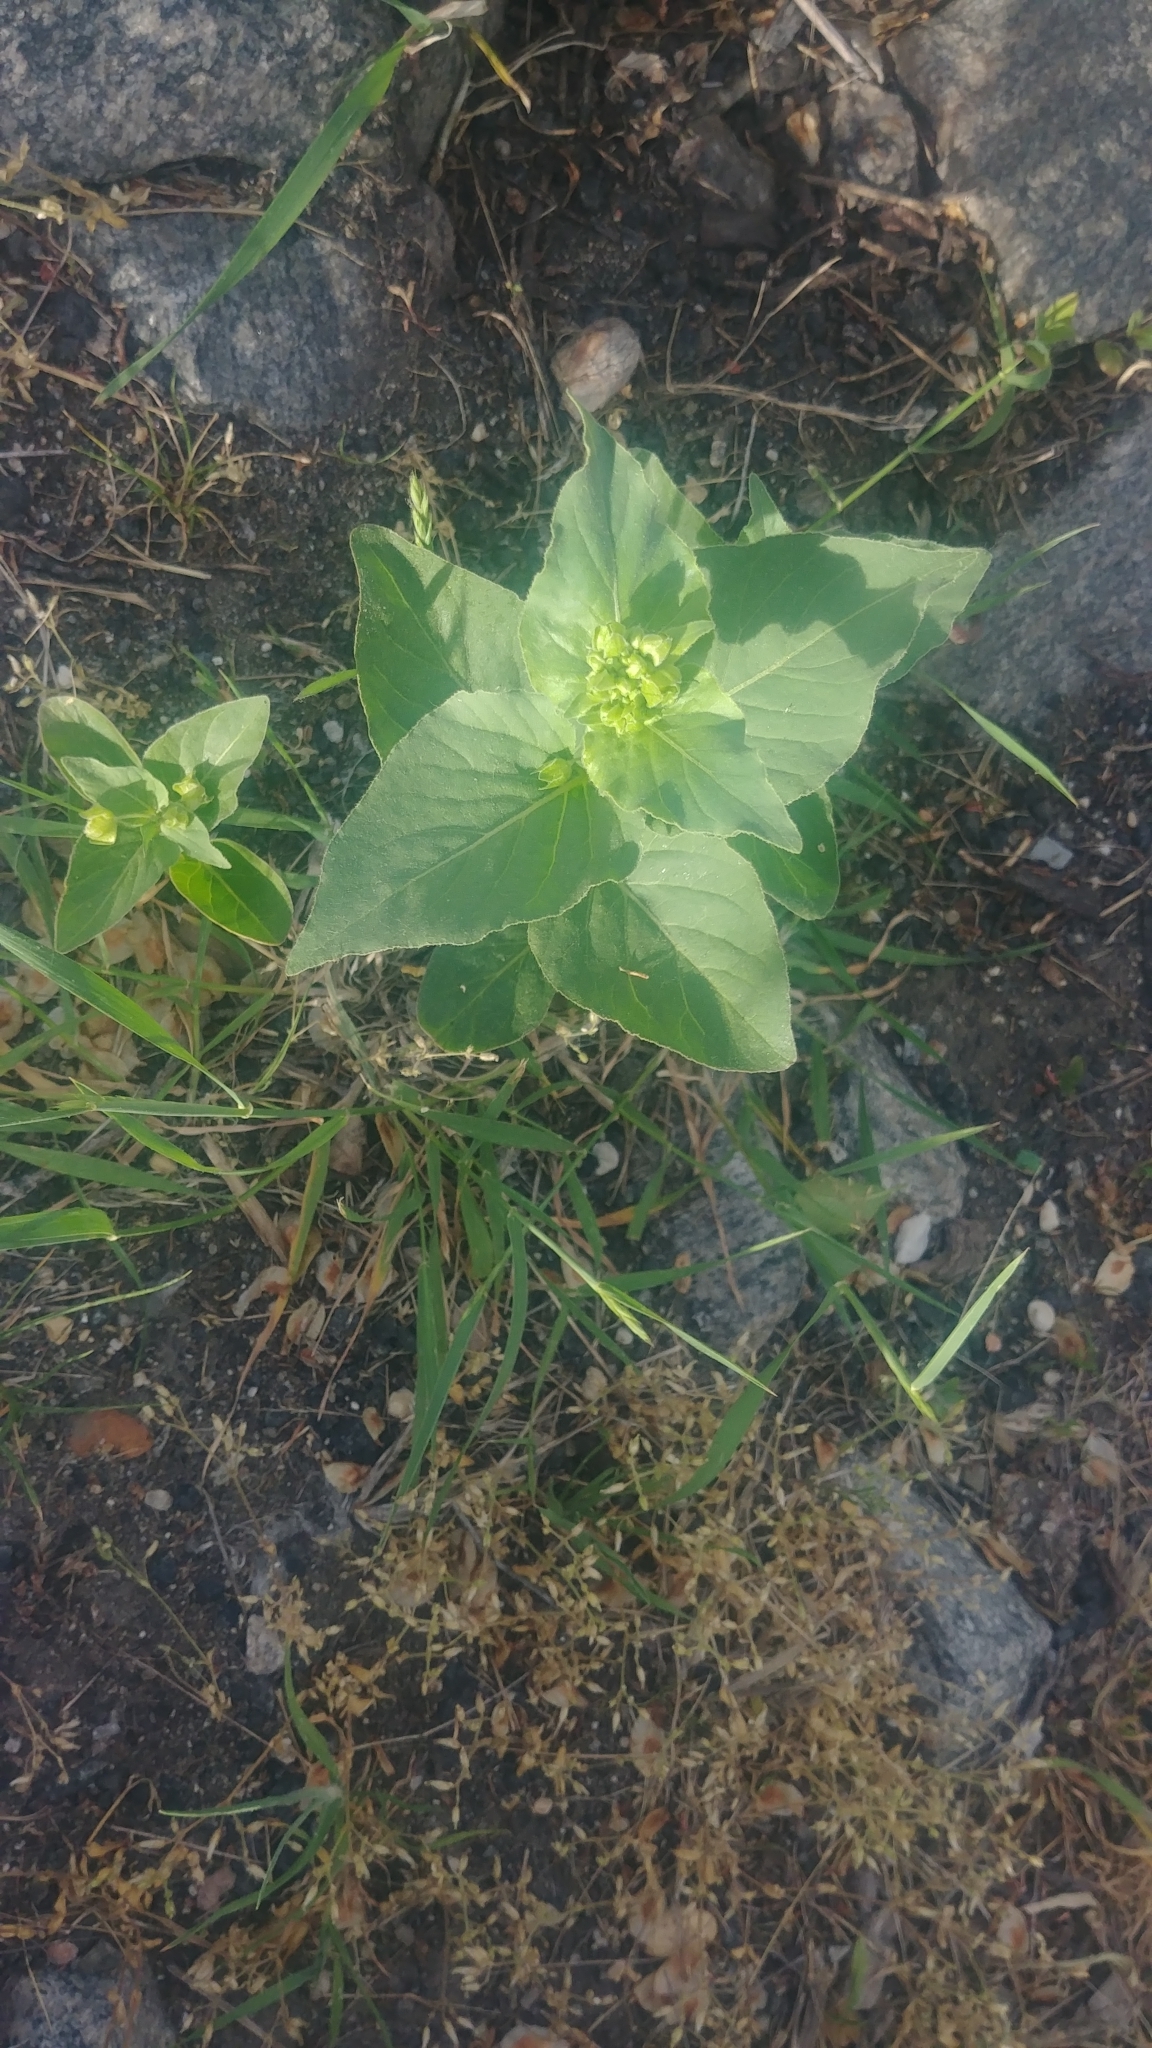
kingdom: Plantae
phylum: Tracheophyta
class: Magnoliopsida
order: Caryophyllales
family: Nyctaginaceae
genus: Mirabilis
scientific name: Mirabilis nyctaginea
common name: Umbrella wort
